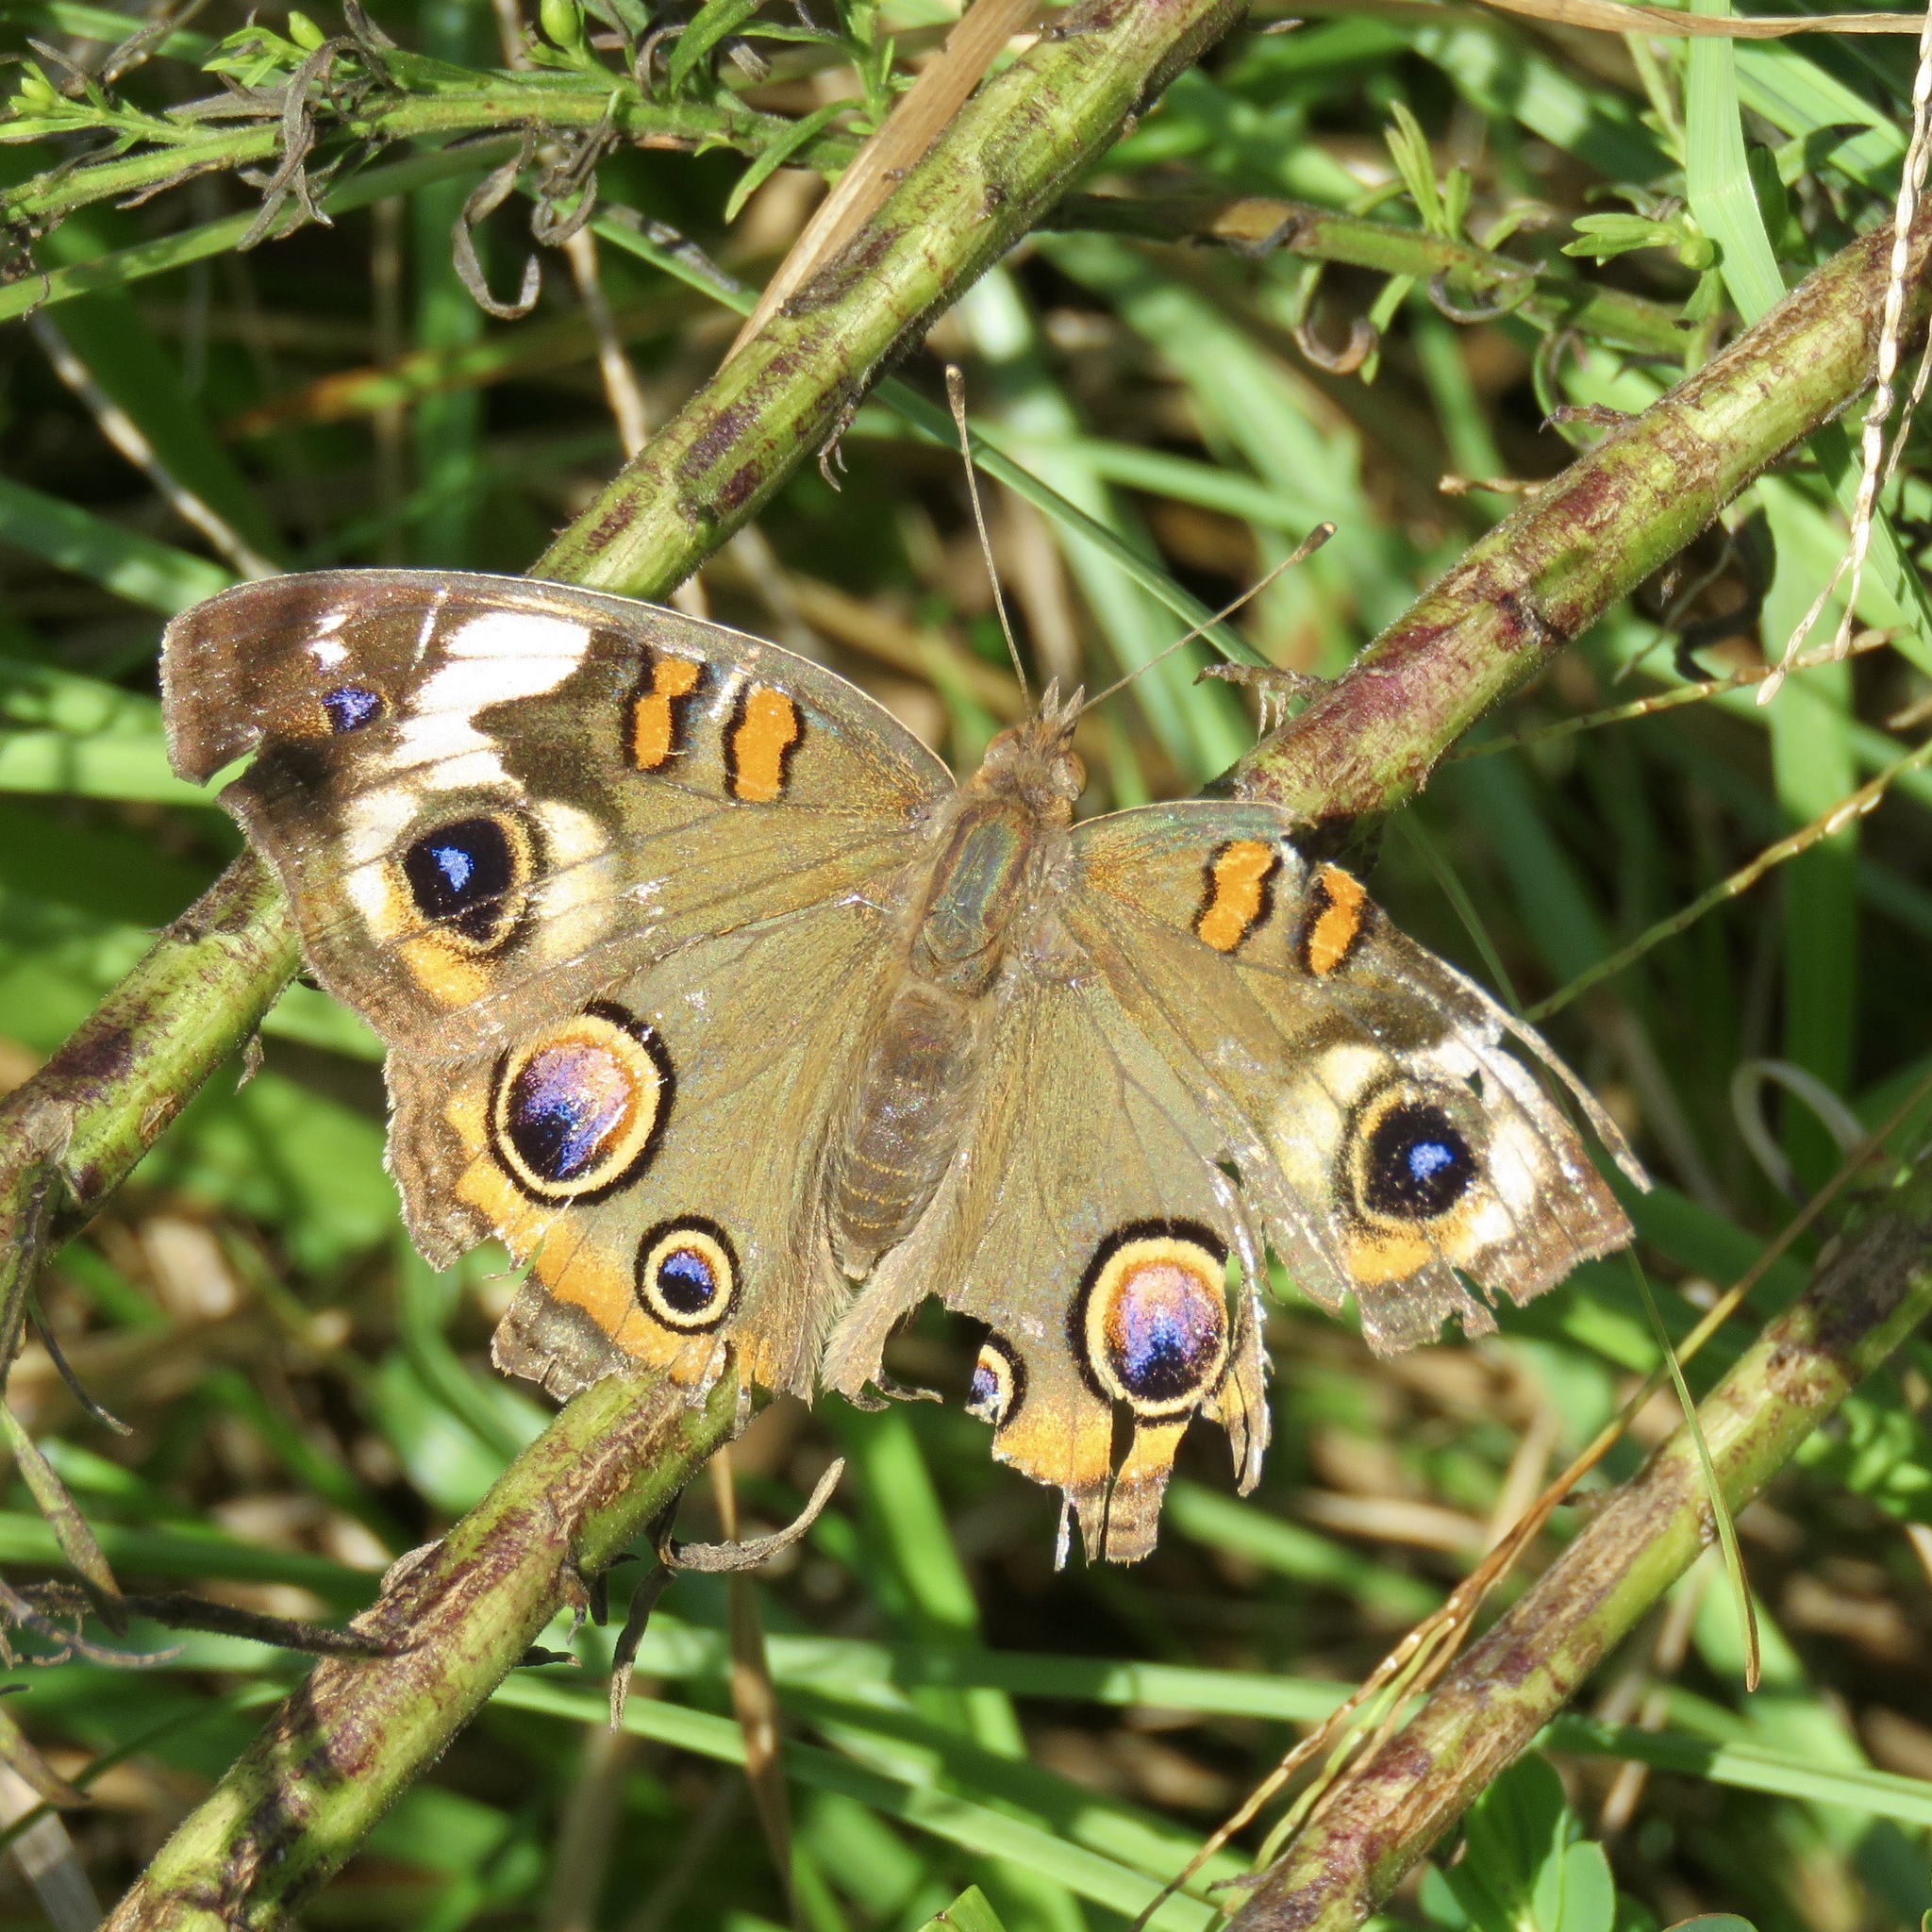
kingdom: Animalia
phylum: Arthropoda
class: Insecta
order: Lepidoptera
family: Nymphalidae
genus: Junonia
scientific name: Junonia coenia
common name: Common buckeye
